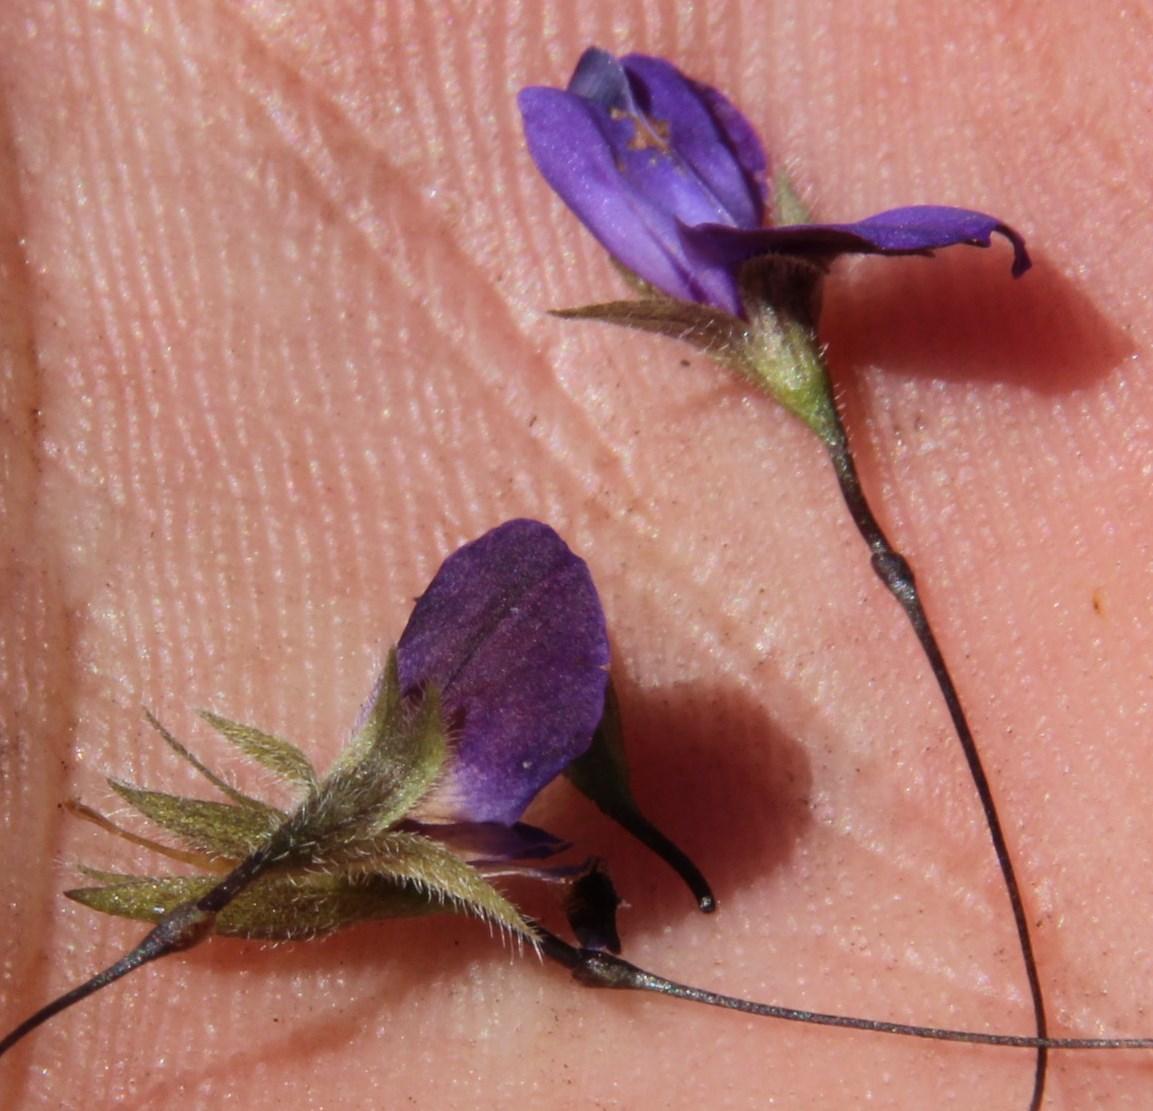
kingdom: Plantae
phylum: Tracheophyta
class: Magnoliopsida
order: Fabales
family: Fabaceae
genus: Psoralea
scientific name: Psoralea monophylla
